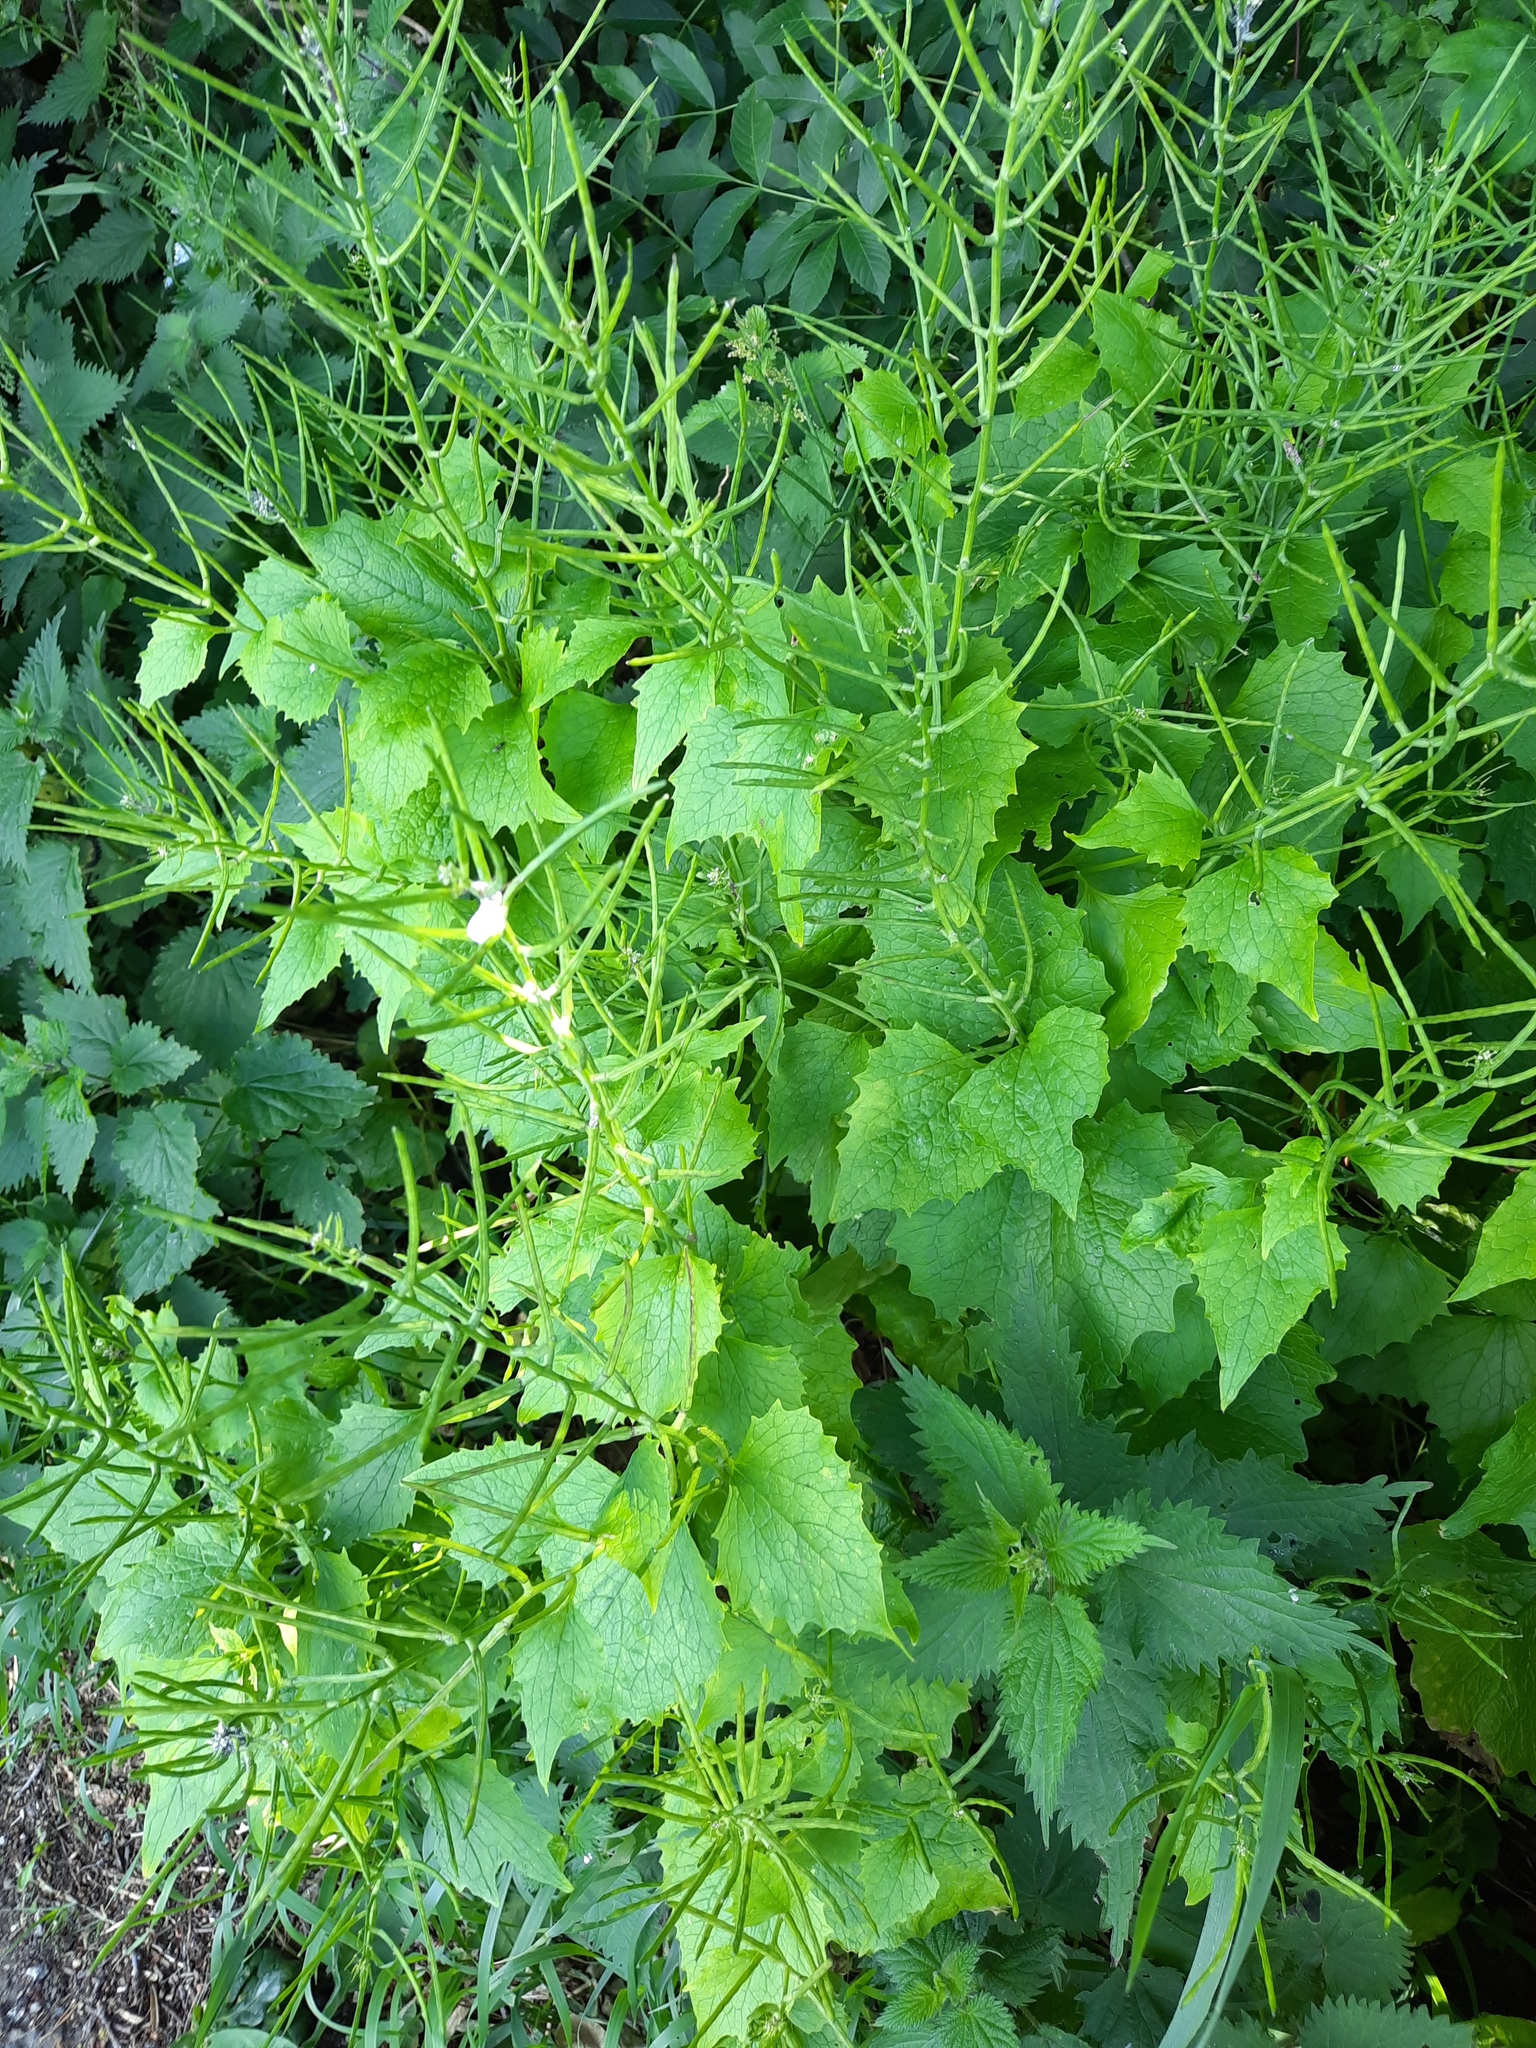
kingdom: Plantae
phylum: Tracheophyta
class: Magnoliopsida
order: Brassicales
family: Brassicaceae
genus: Alliaria
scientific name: Alliaria petiolata
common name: Garlic mustard
